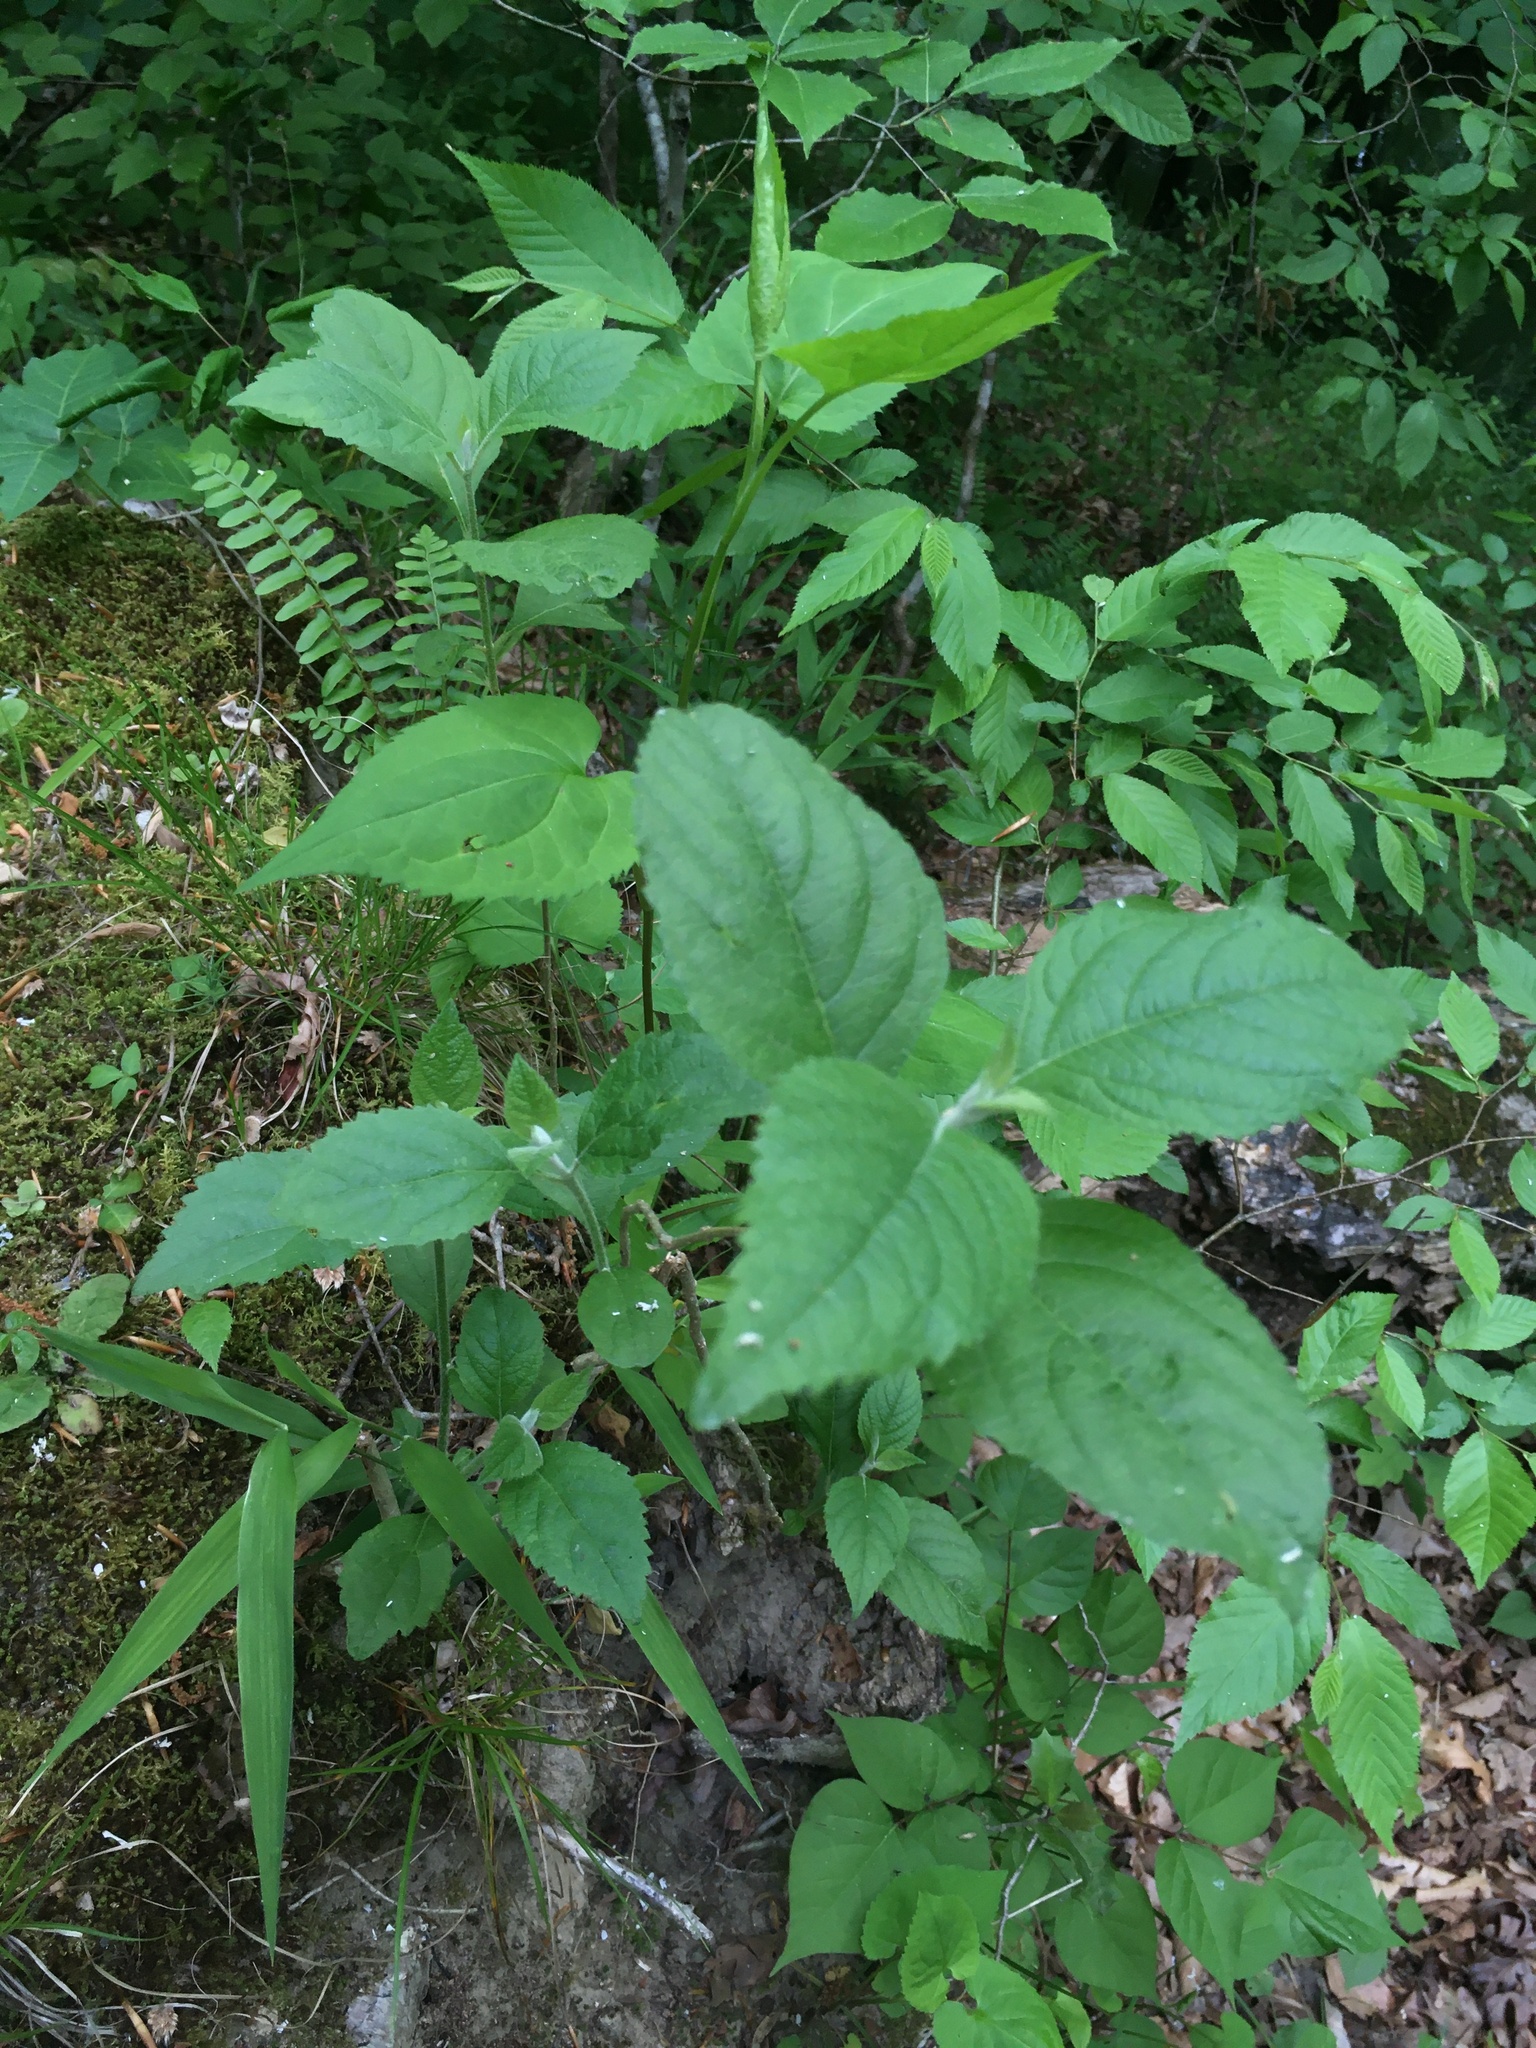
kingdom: Plantae
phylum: Tracheophyta
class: Magnoliopsida
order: Lamiales
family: Lamiaceae
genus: Callicarpa
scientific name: Callicarpa americana
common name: American beautyberry
